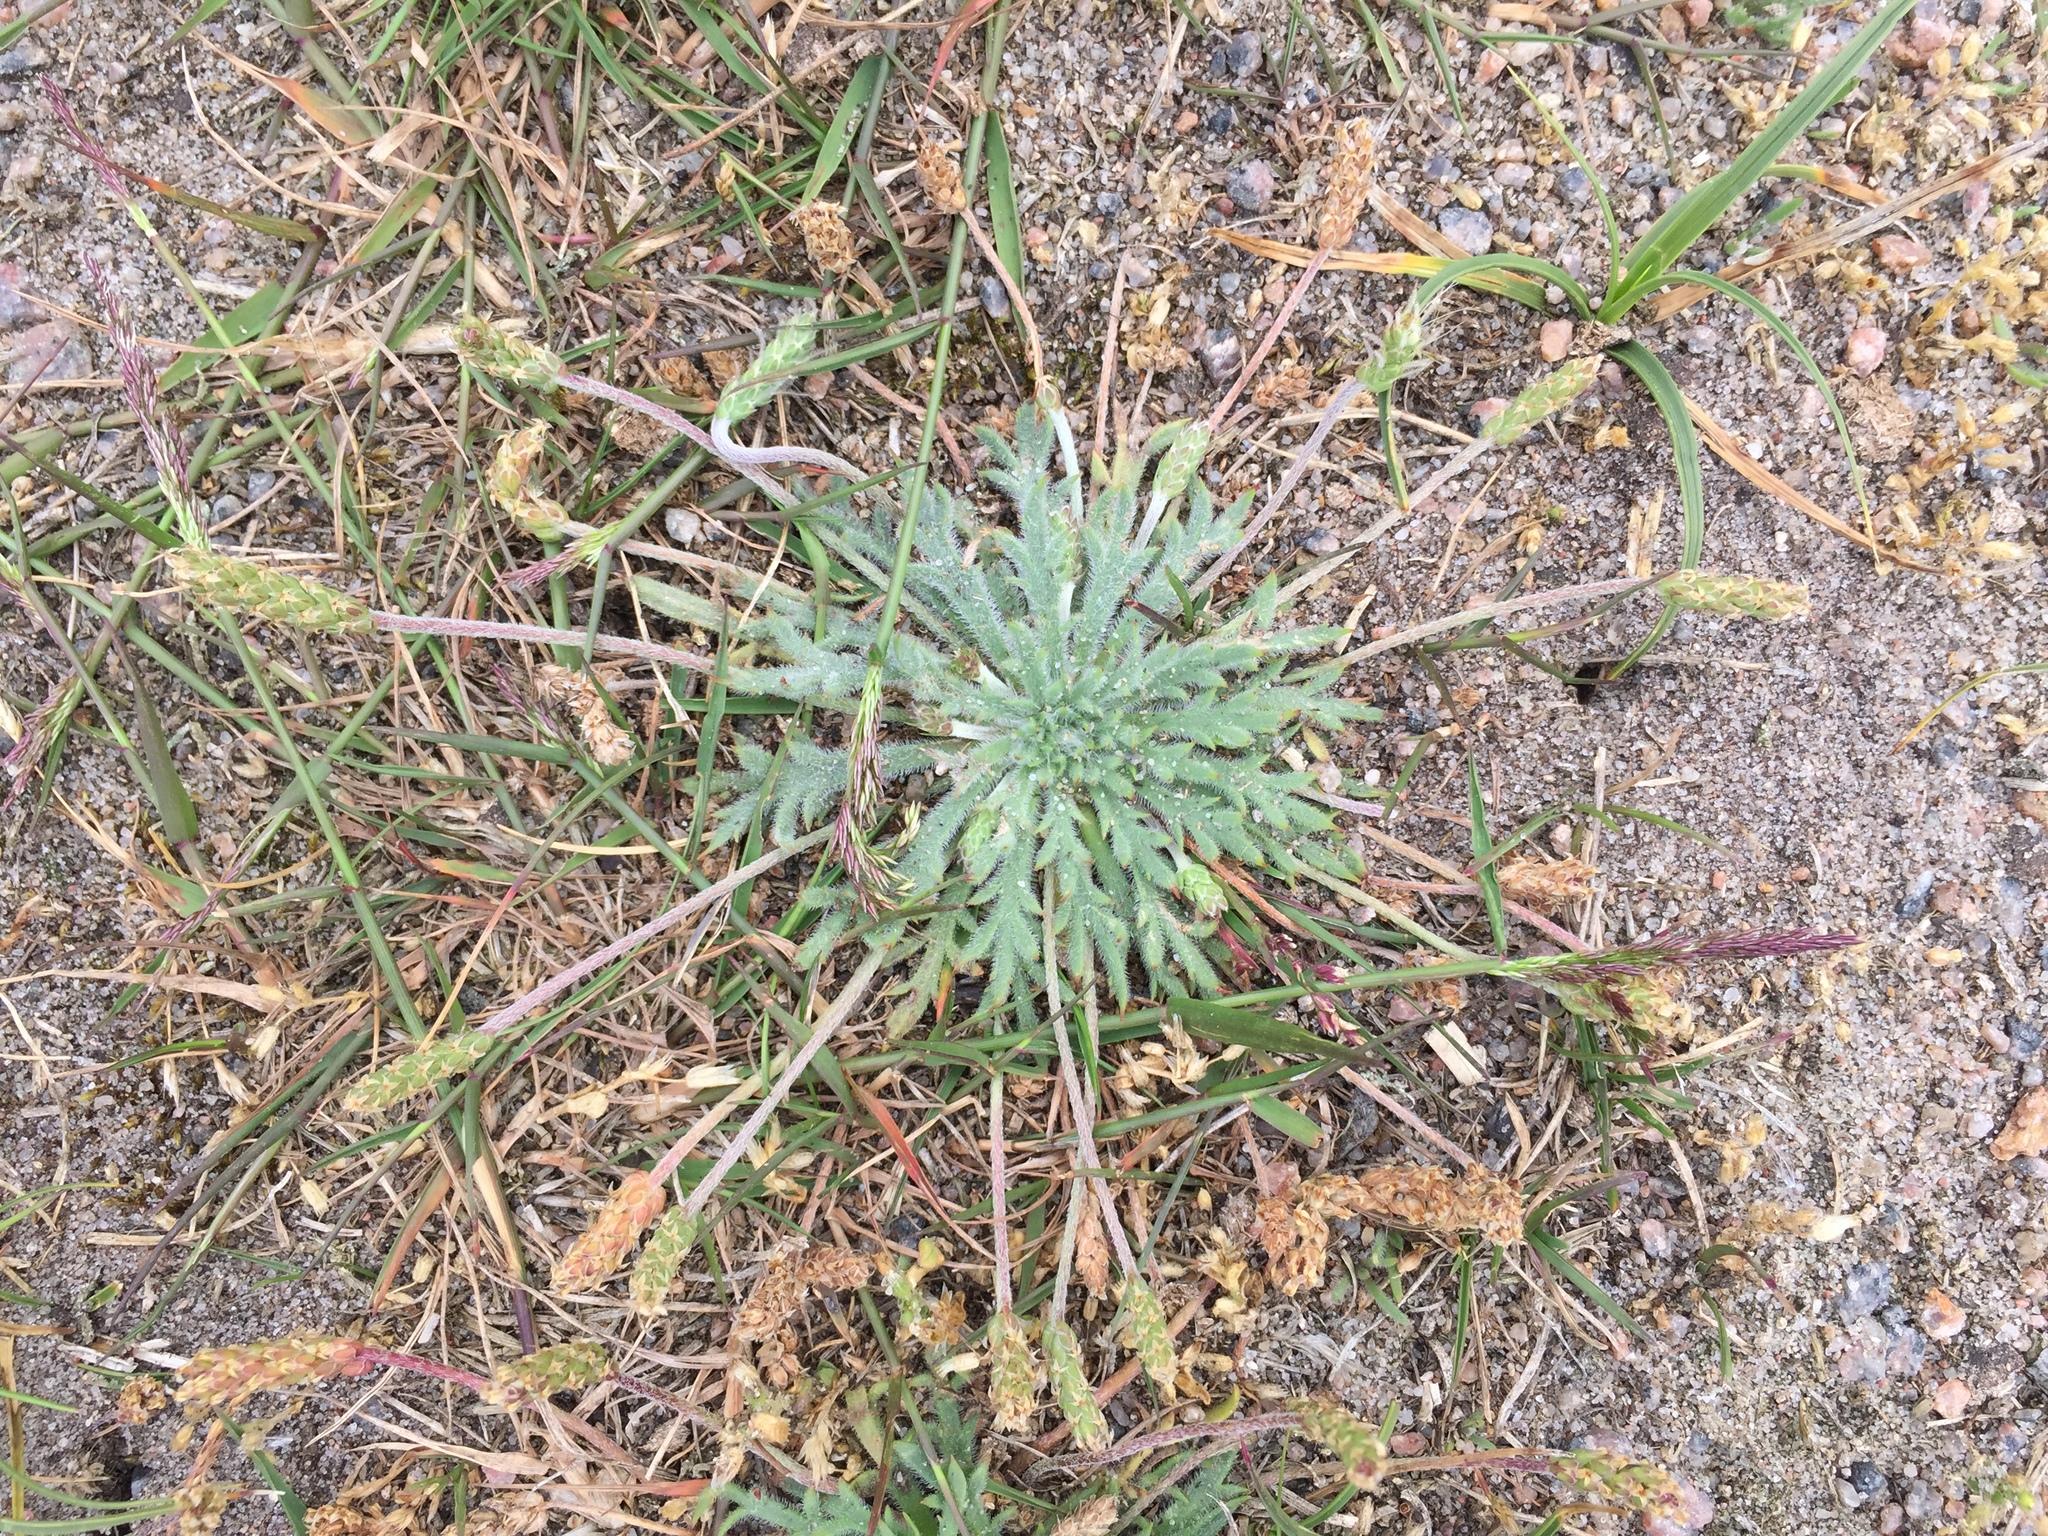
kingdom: Plantae
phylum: Tracheophyta
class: Magnoliopsida
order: Lamiales
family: Plantaginaceae
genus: Plantago
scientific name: Plantago coronopus
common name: Buck's-horn plantain
